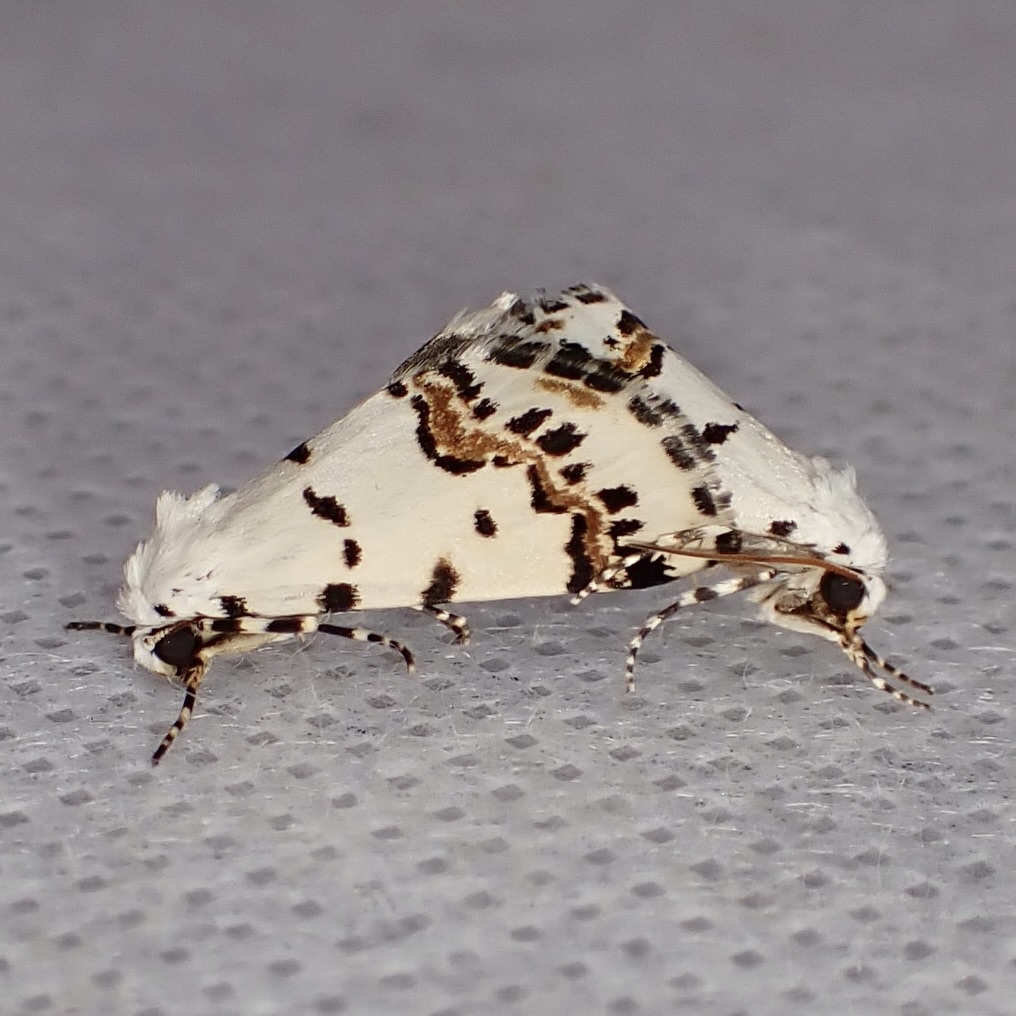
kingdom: Animalia
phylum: Arthropoda
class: Insecta
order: Lepidoptera
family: Noctuidae
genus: Grotella
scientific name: Grotella tricolor
